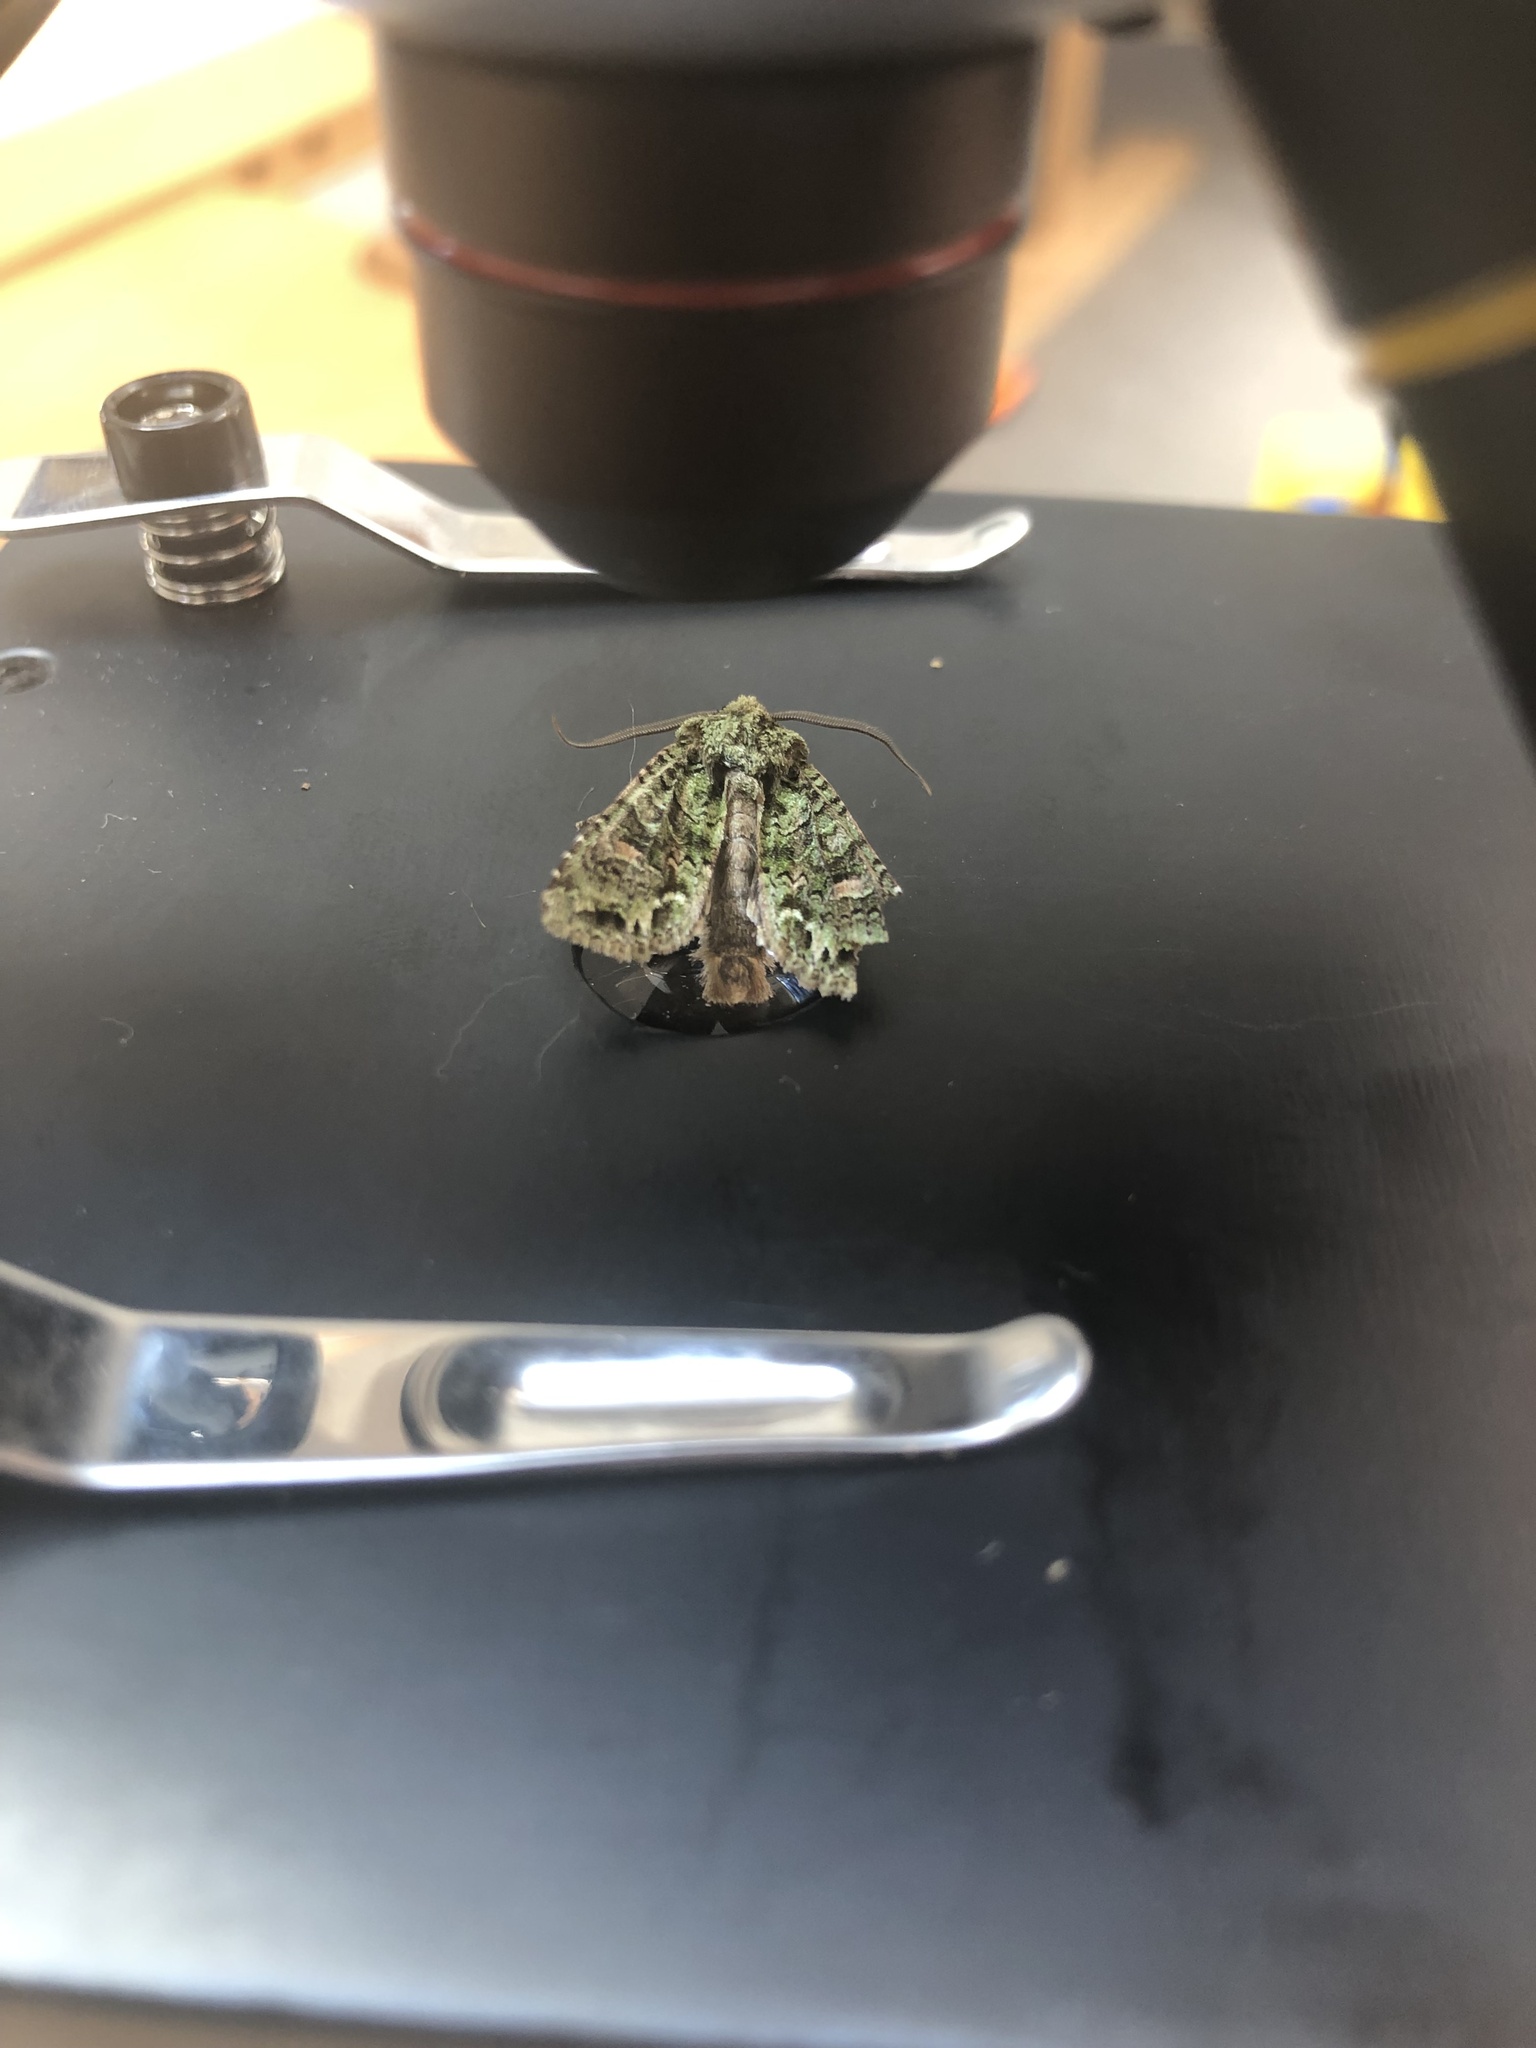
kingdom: Animalia
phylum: Arthropoda
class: Insecta
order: Lepidoptera
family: Noctuidae
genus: Ichneutica
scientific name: Ichneutica
